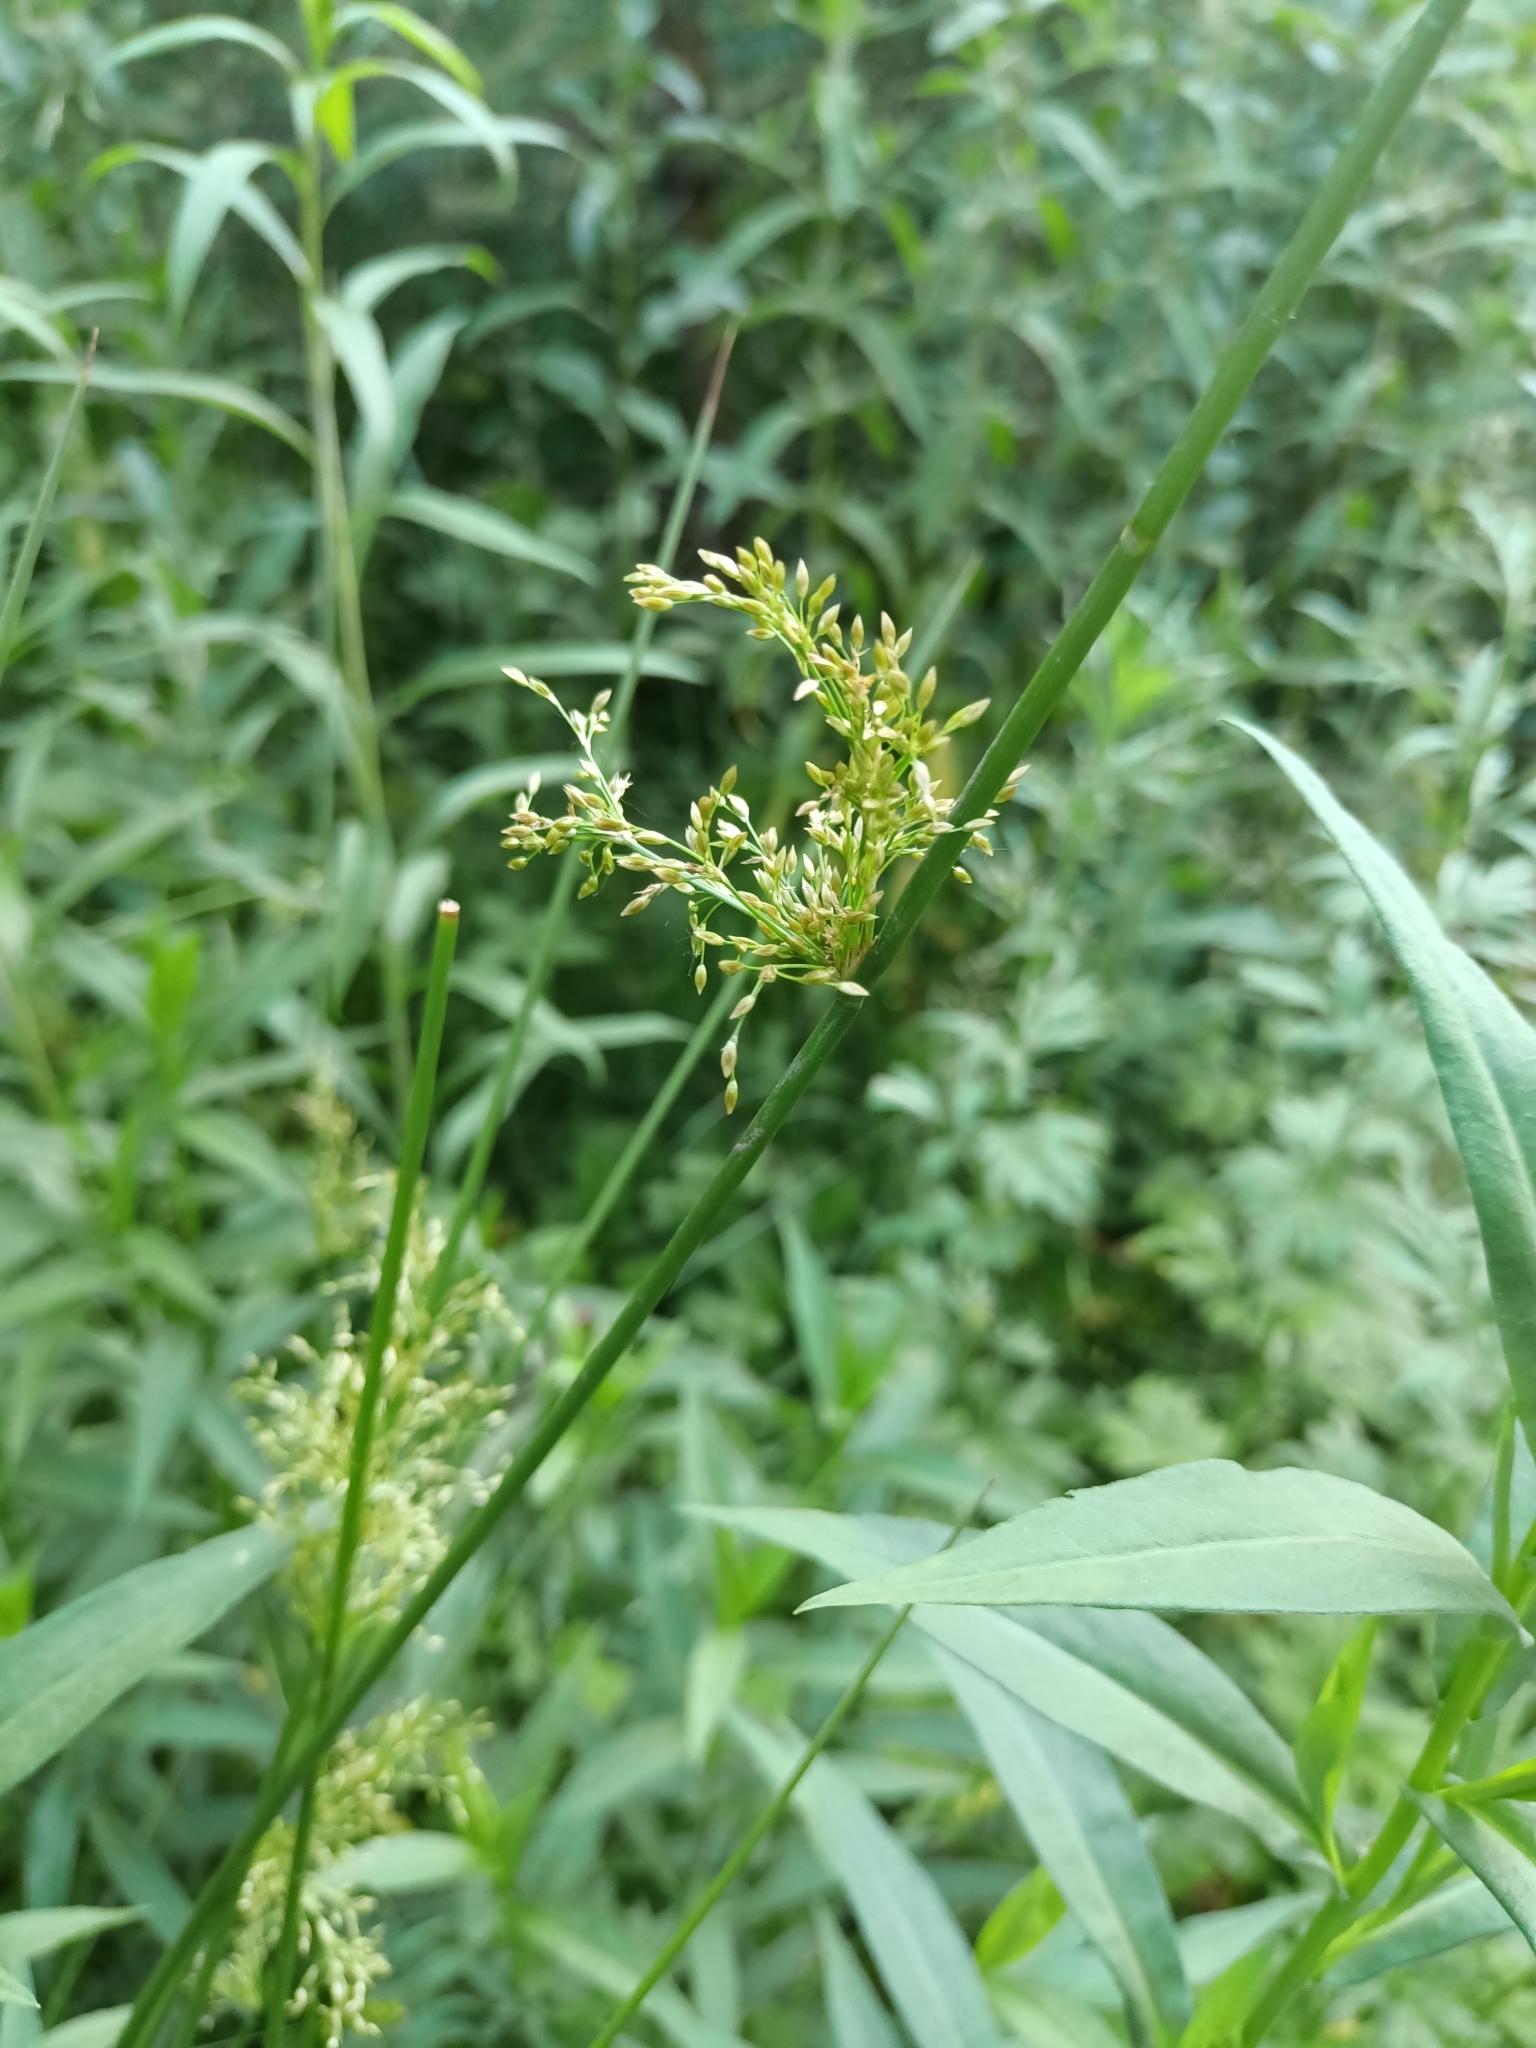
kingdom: Plantae
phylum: Tracheophyta
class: Liliopsida
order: Poales
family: Juncaceae
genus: Juncus
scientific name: Juncus effusus
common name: Soft rush
